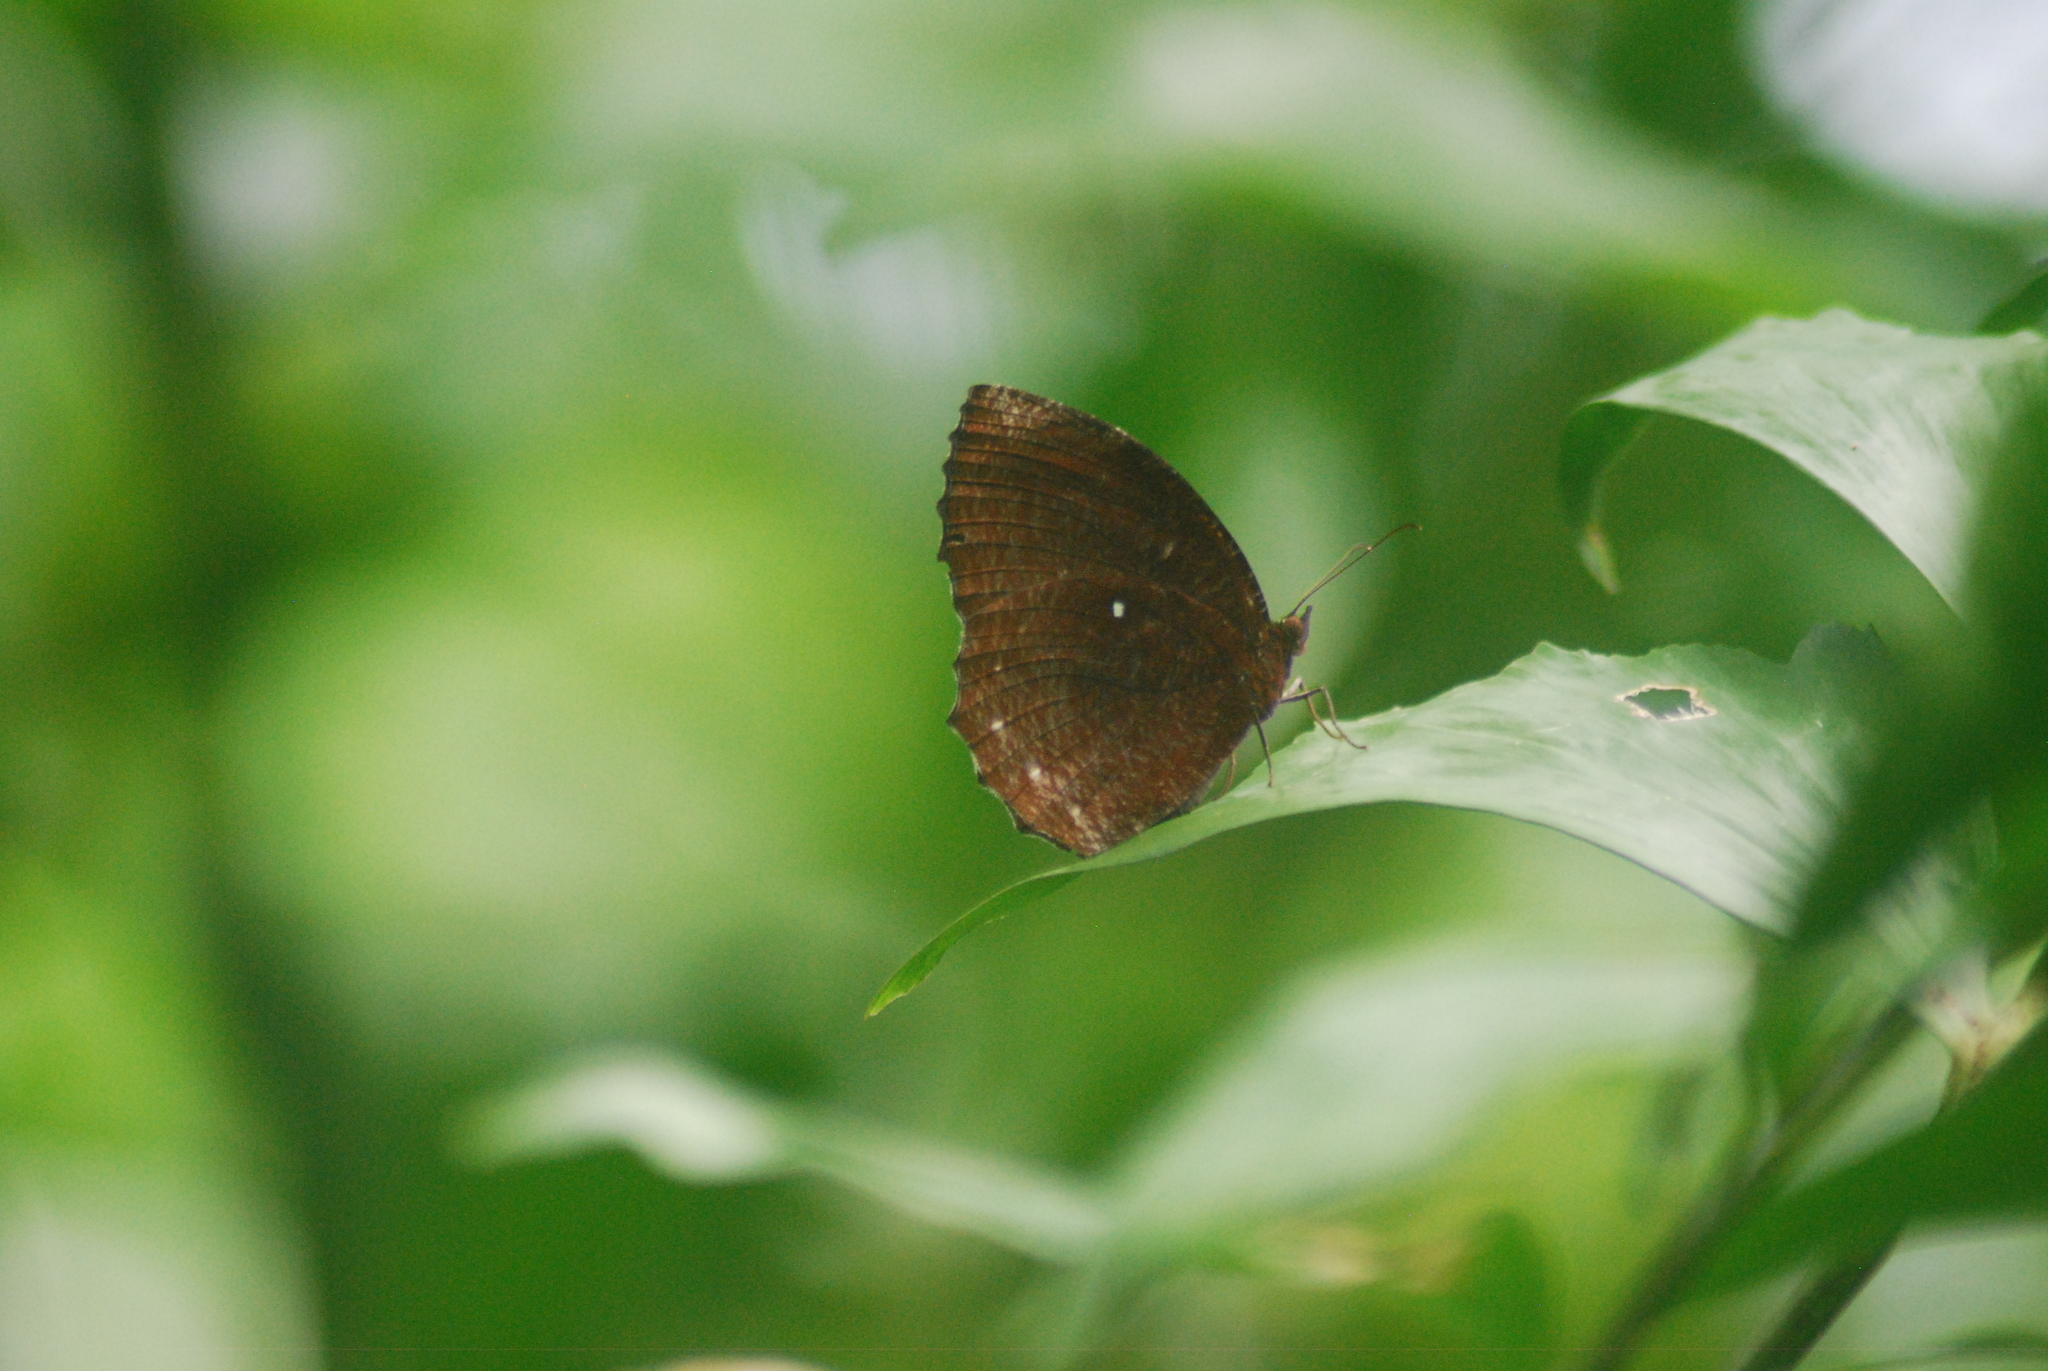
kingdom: Animalia
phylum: Arthropoda
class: Insecta
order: Lepidoptera
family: Nymphalidae
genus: Elymnias
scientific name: Elymnias hypermnestra
